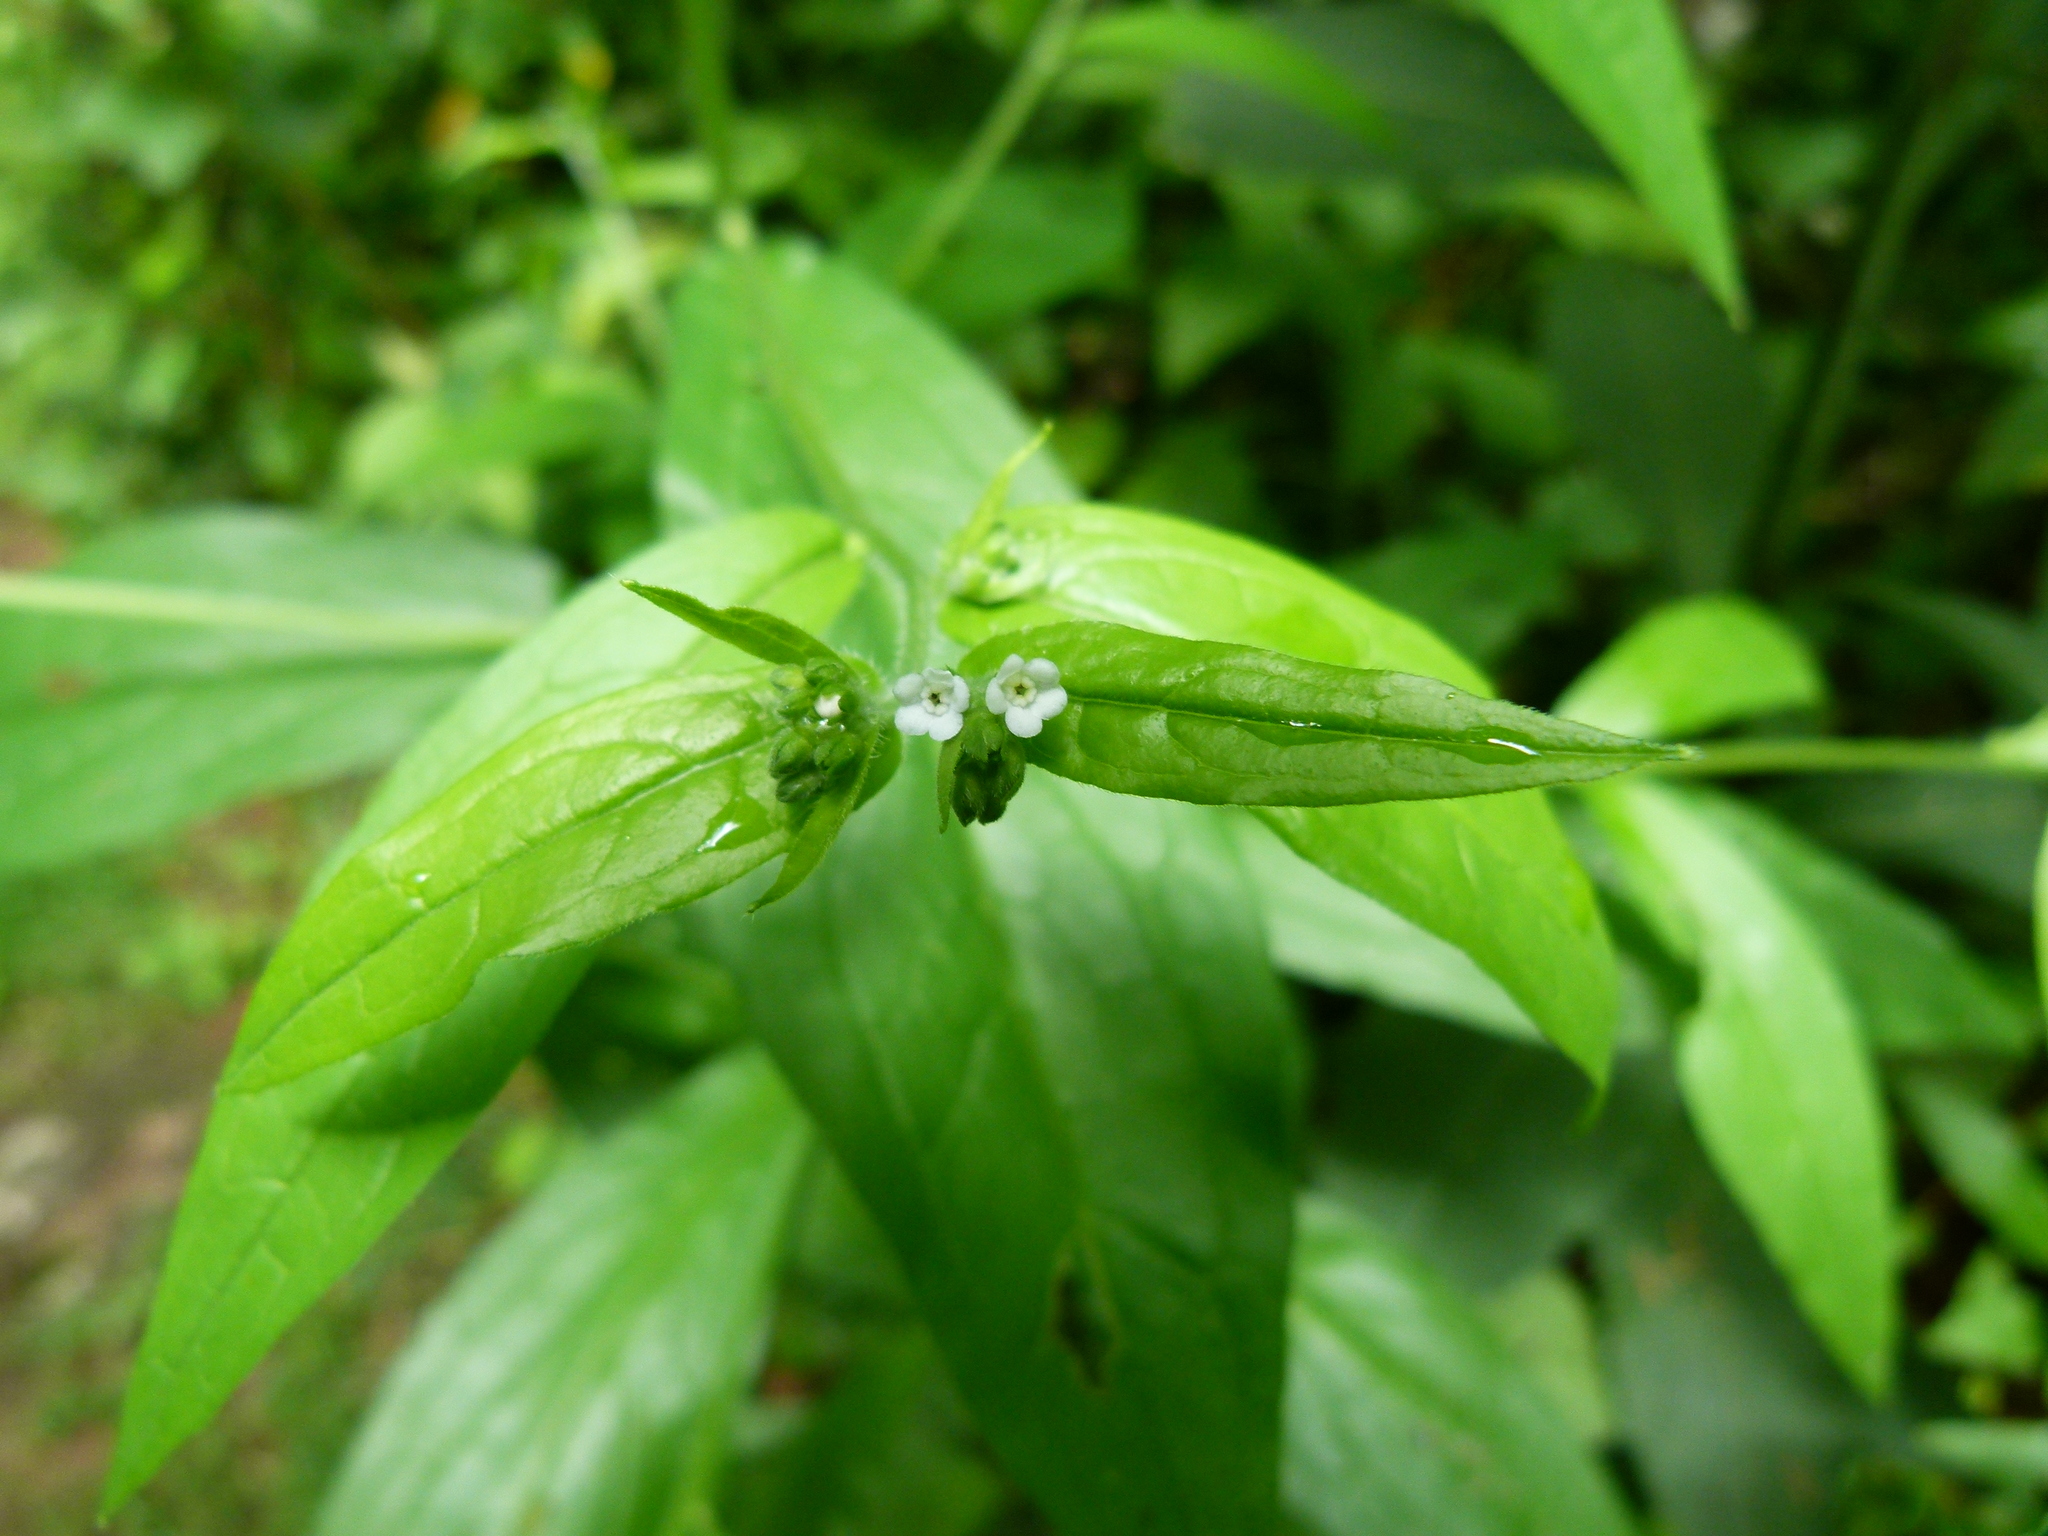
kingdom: Plantae
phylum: Tracheophyta
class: Magnoliopsida
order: Boraginales
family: Boraginaceae
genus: Hackelia
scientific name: Hackelia virginiana
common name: Beggar's-lice
